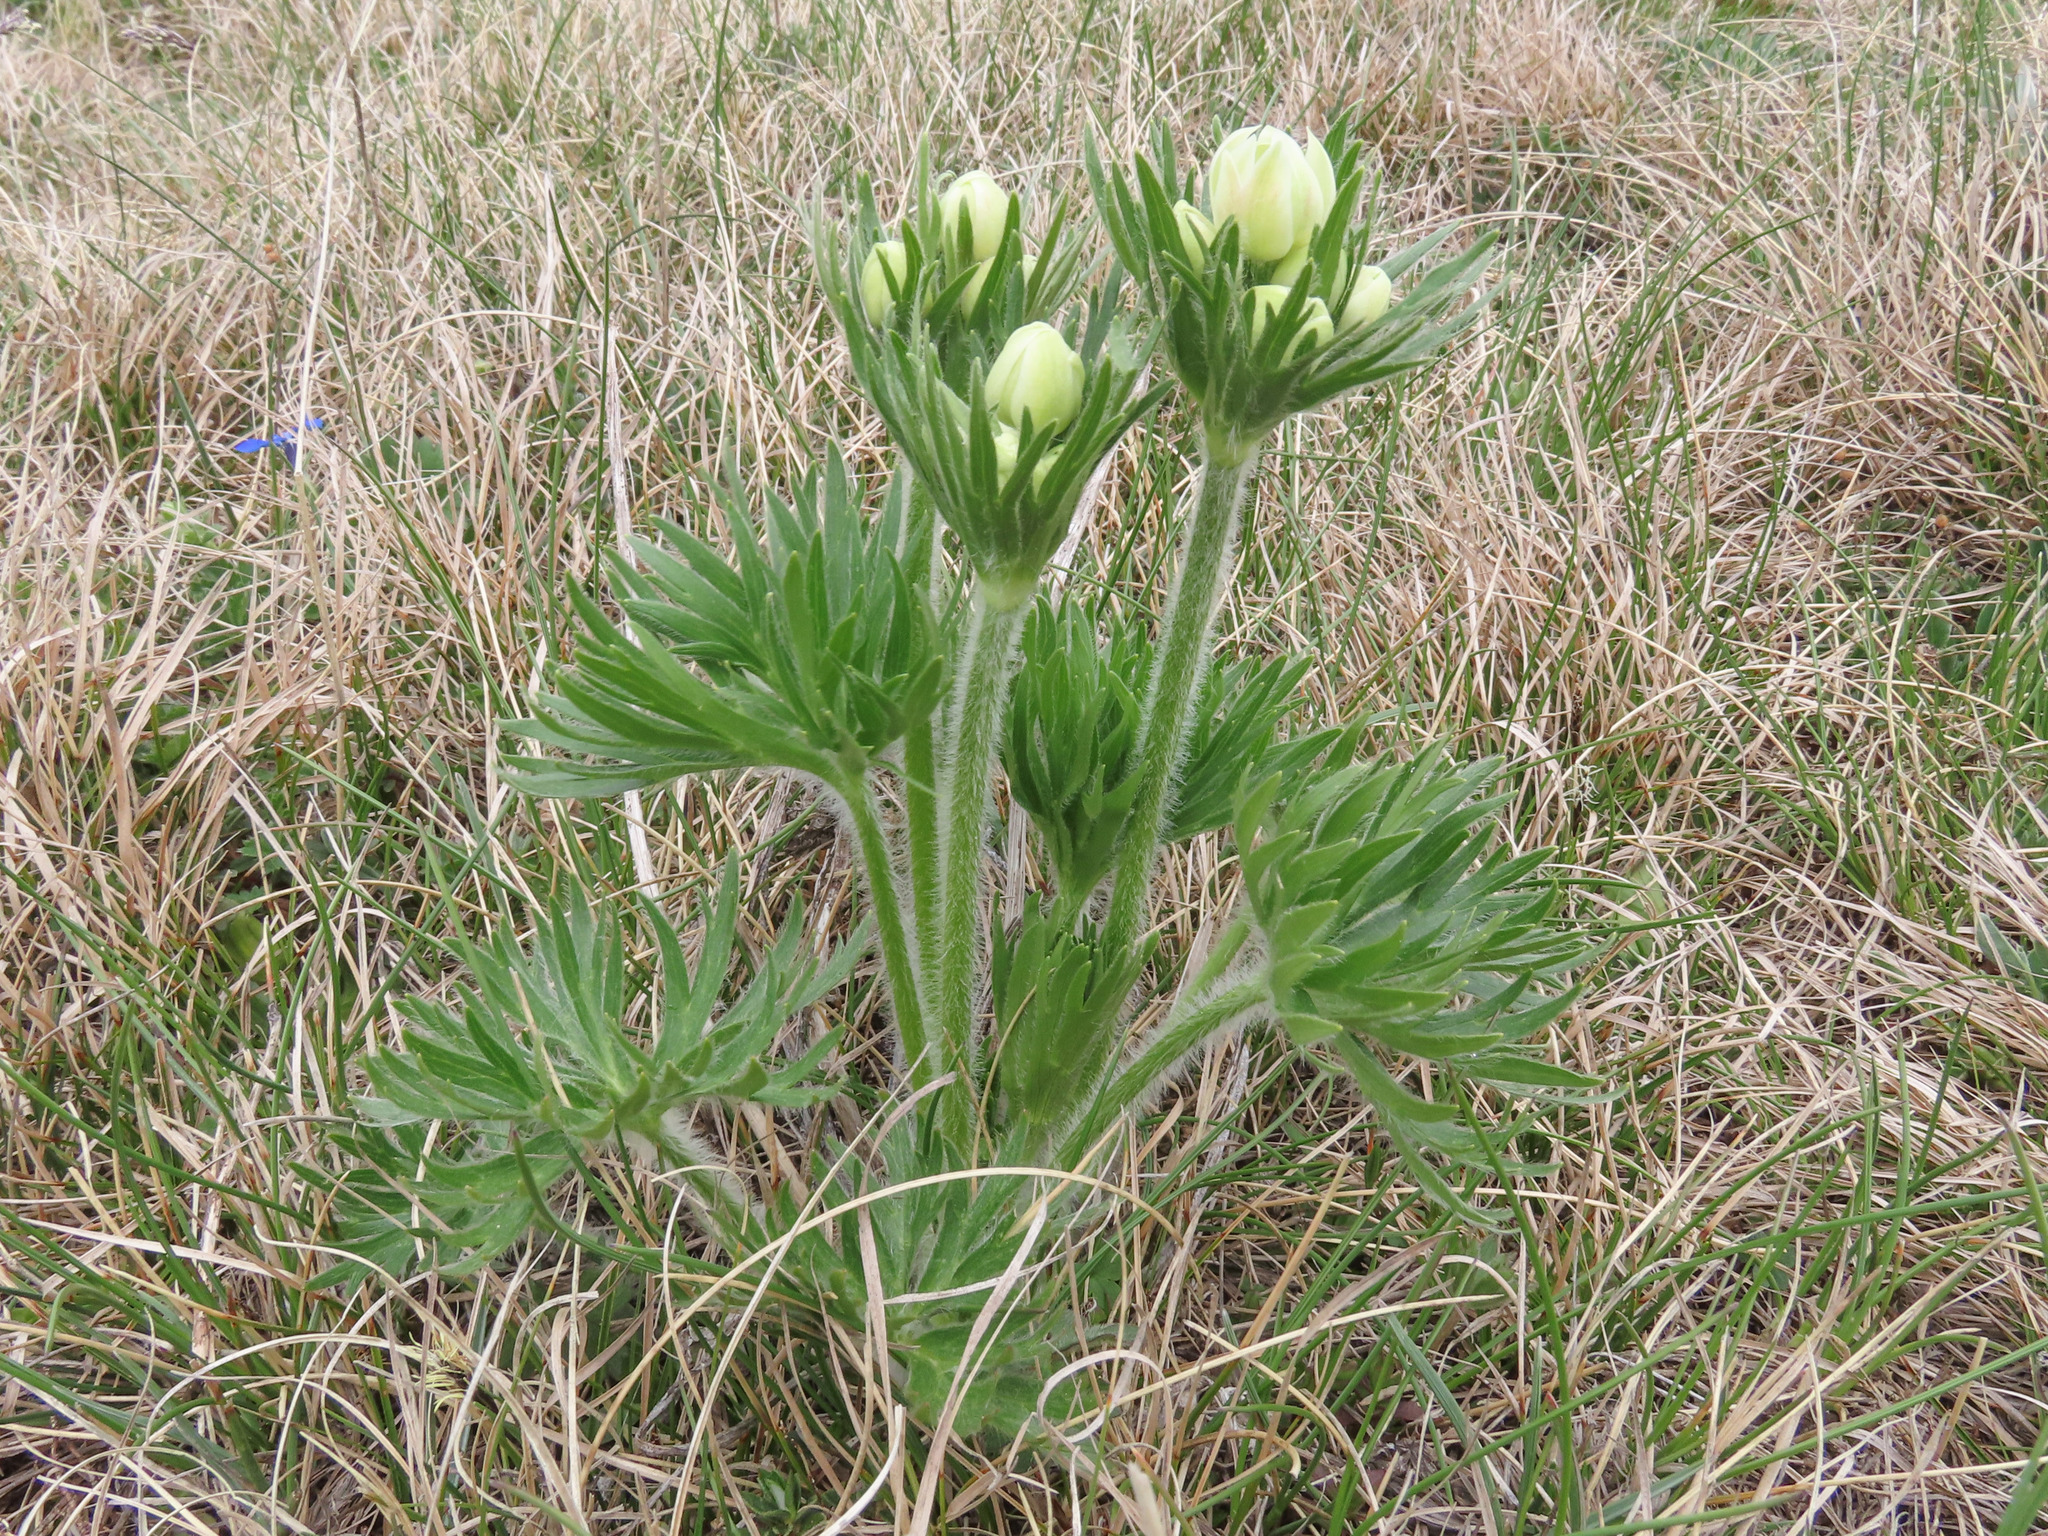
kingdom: Plantae
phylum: Tracheophyta
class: Magnoliopsida
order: Ranunculales
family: Ranunculaceae
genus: Anemonastrum
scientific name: Anemonastrum narcissiflorum
